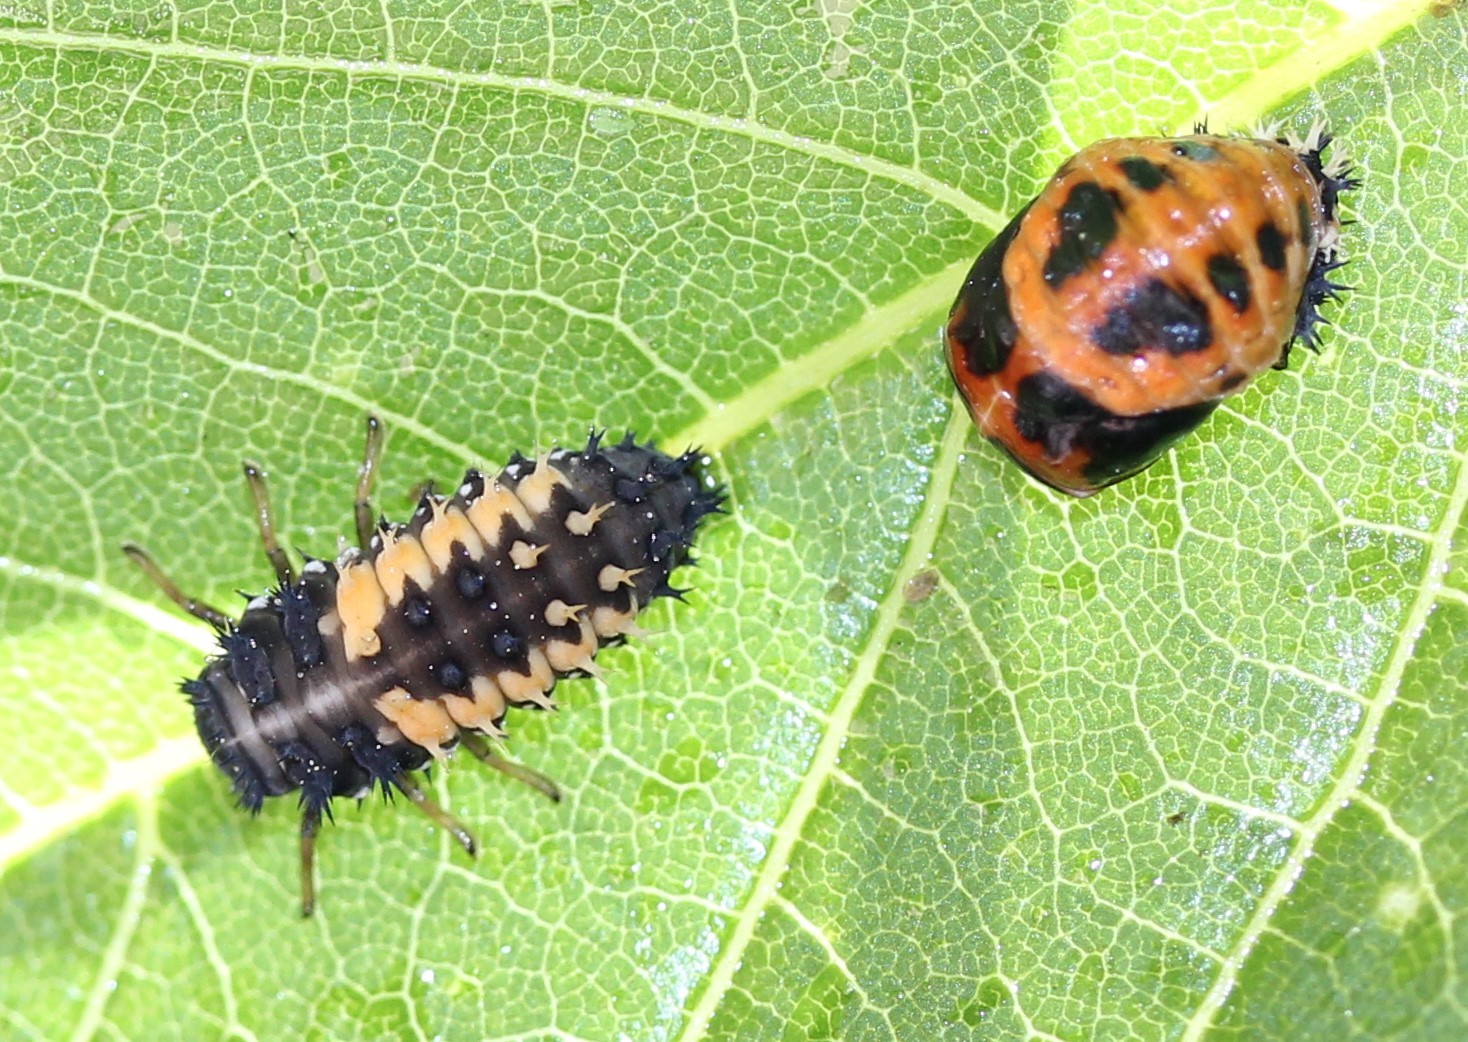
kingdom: Animalia
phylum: Arthropoda
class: Insecta
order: Coleoptera
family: Coccinellidae
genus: Harmonia
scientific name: Harmonia axyridis
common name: Harlequin ladybird
